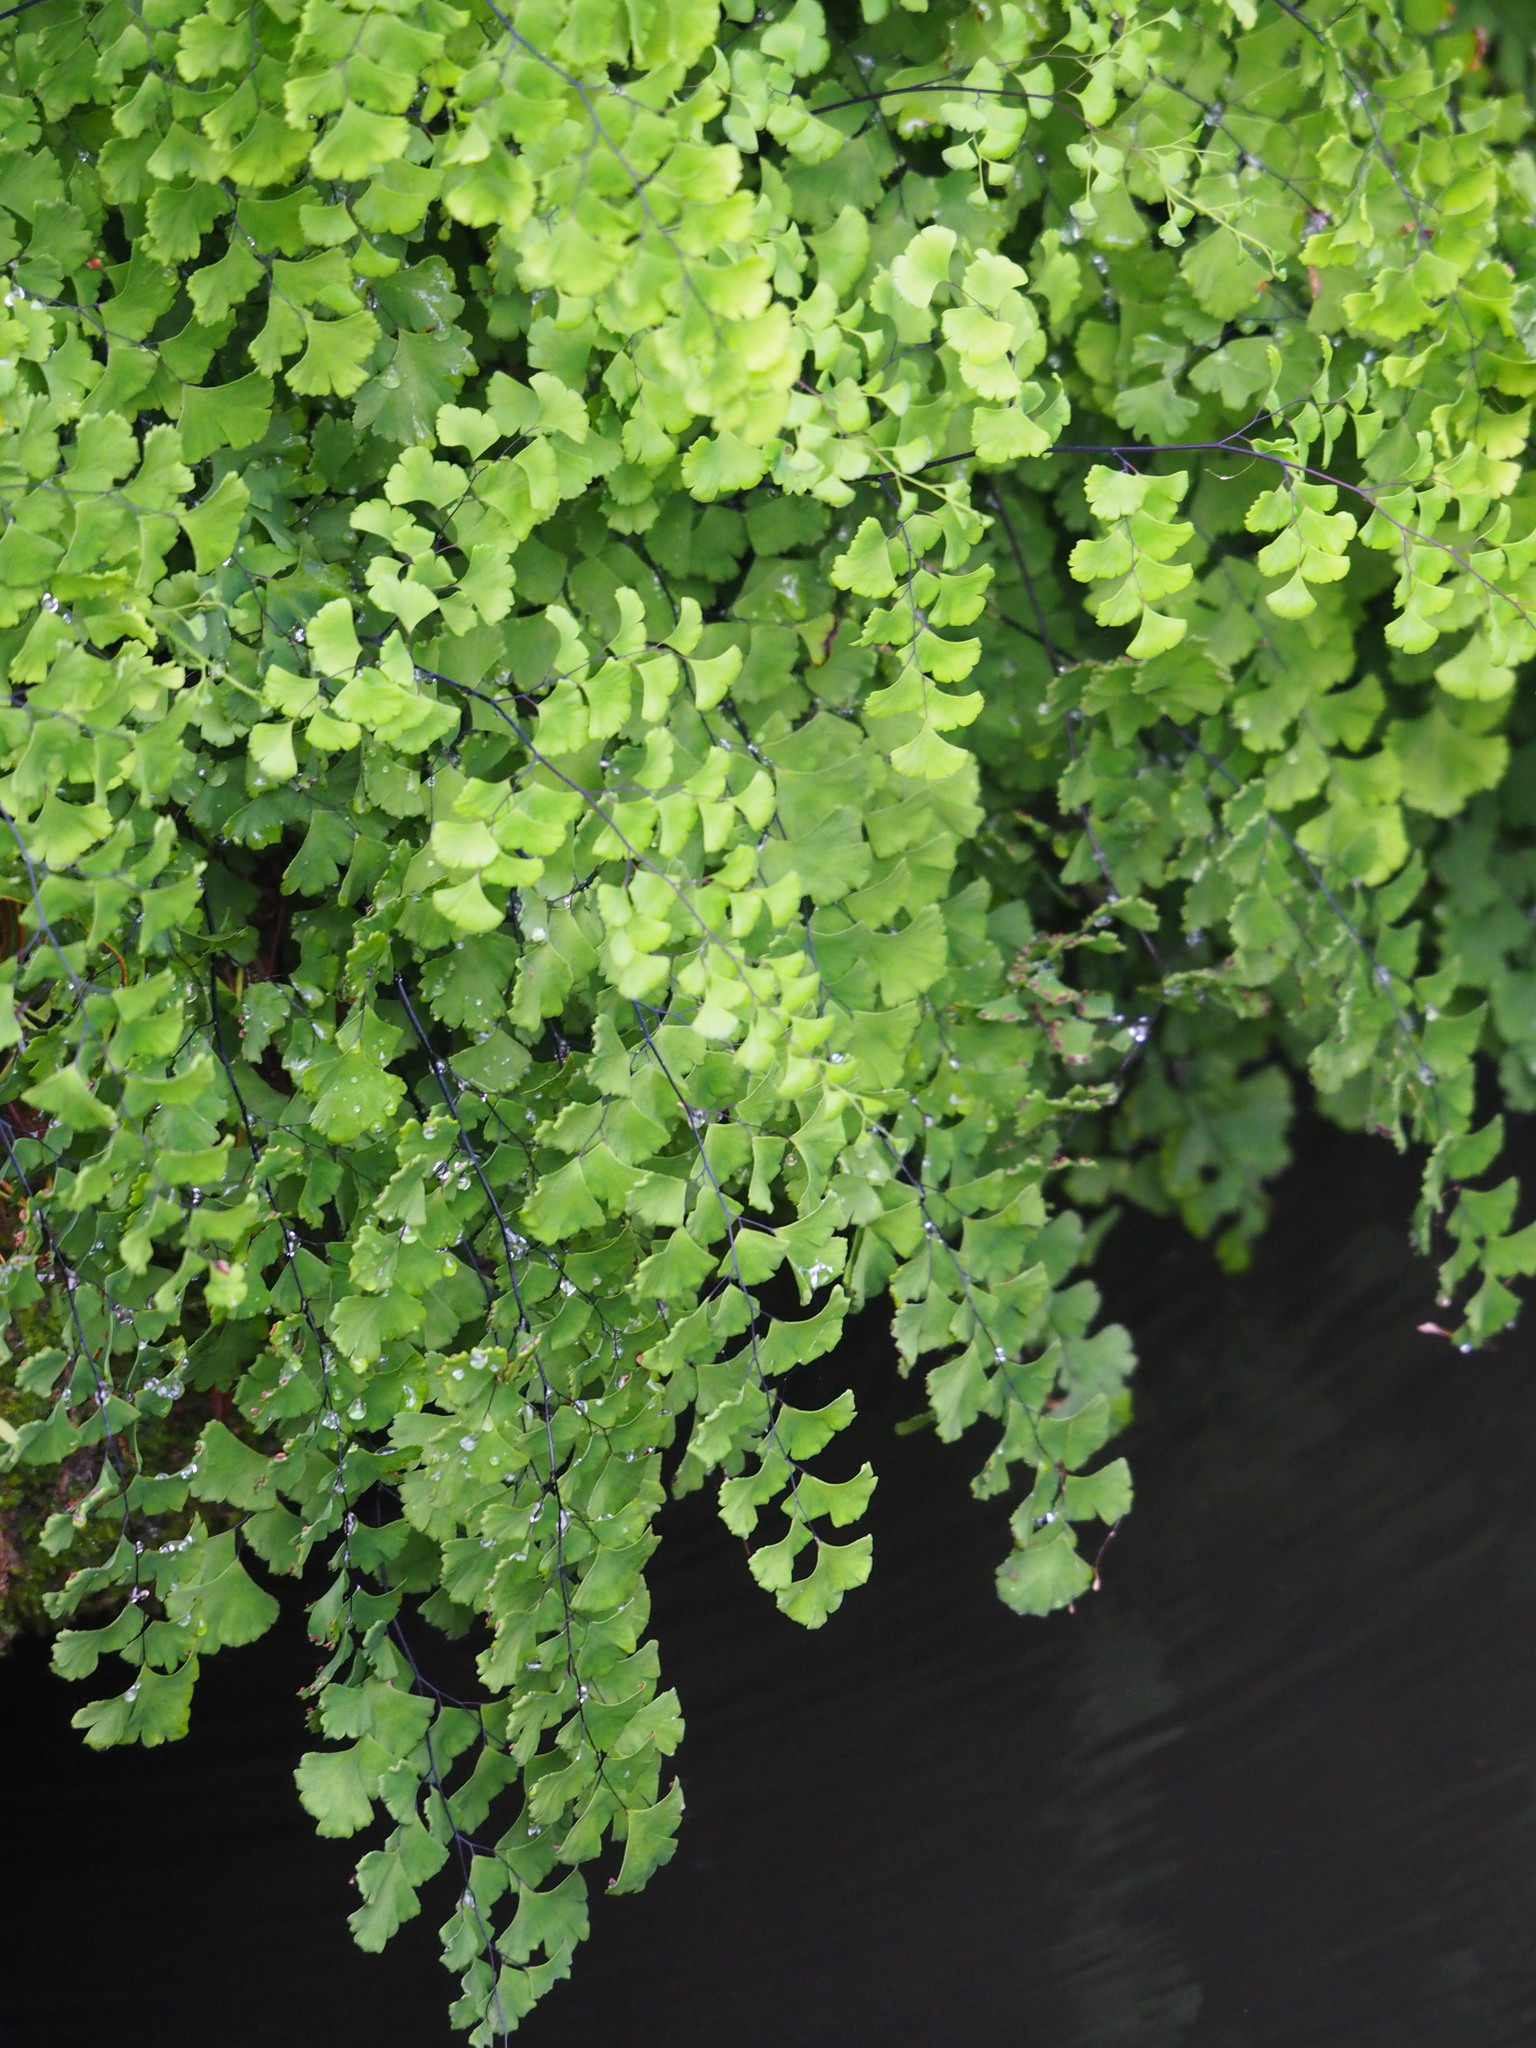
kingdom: Plantae
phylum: Tracheophyta
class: Polypodiopsida
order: Polypodiales
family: Pteridaceae
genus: Adiantum
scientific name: Adiantum capillus-veneris
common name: Maidenhair fern
